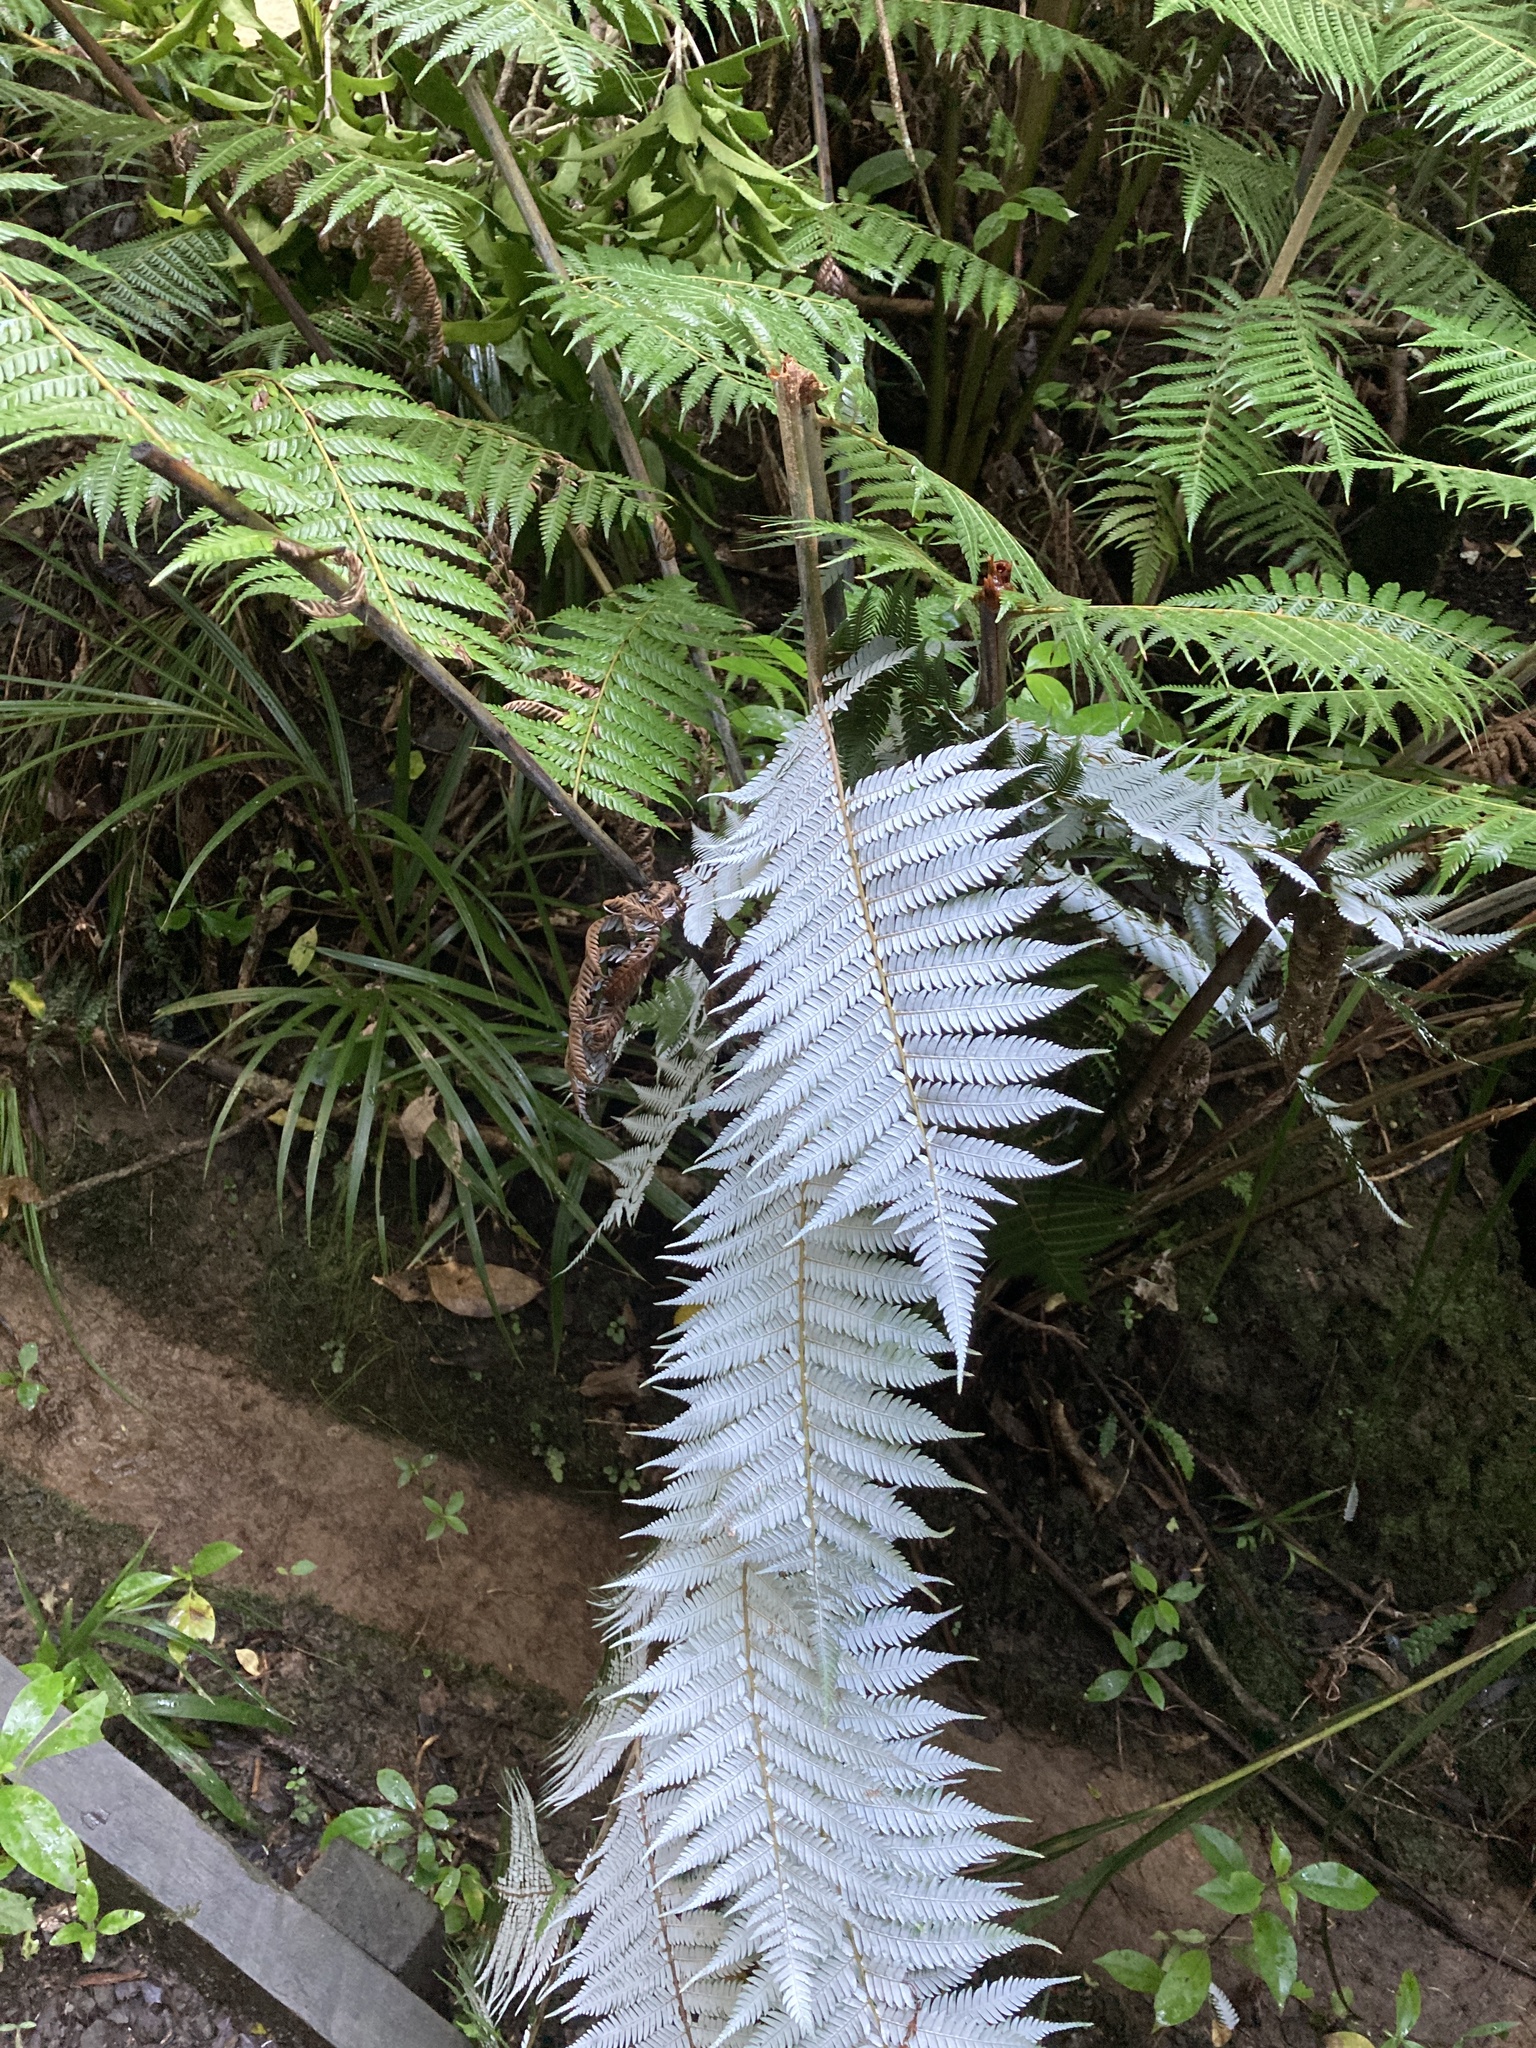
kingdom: Plantae
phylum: Tracheophyta
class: Polypodiopsida
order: Cyatheales
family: Cyatheaceae
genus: Alsophila
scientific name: Alsophila dealbata
